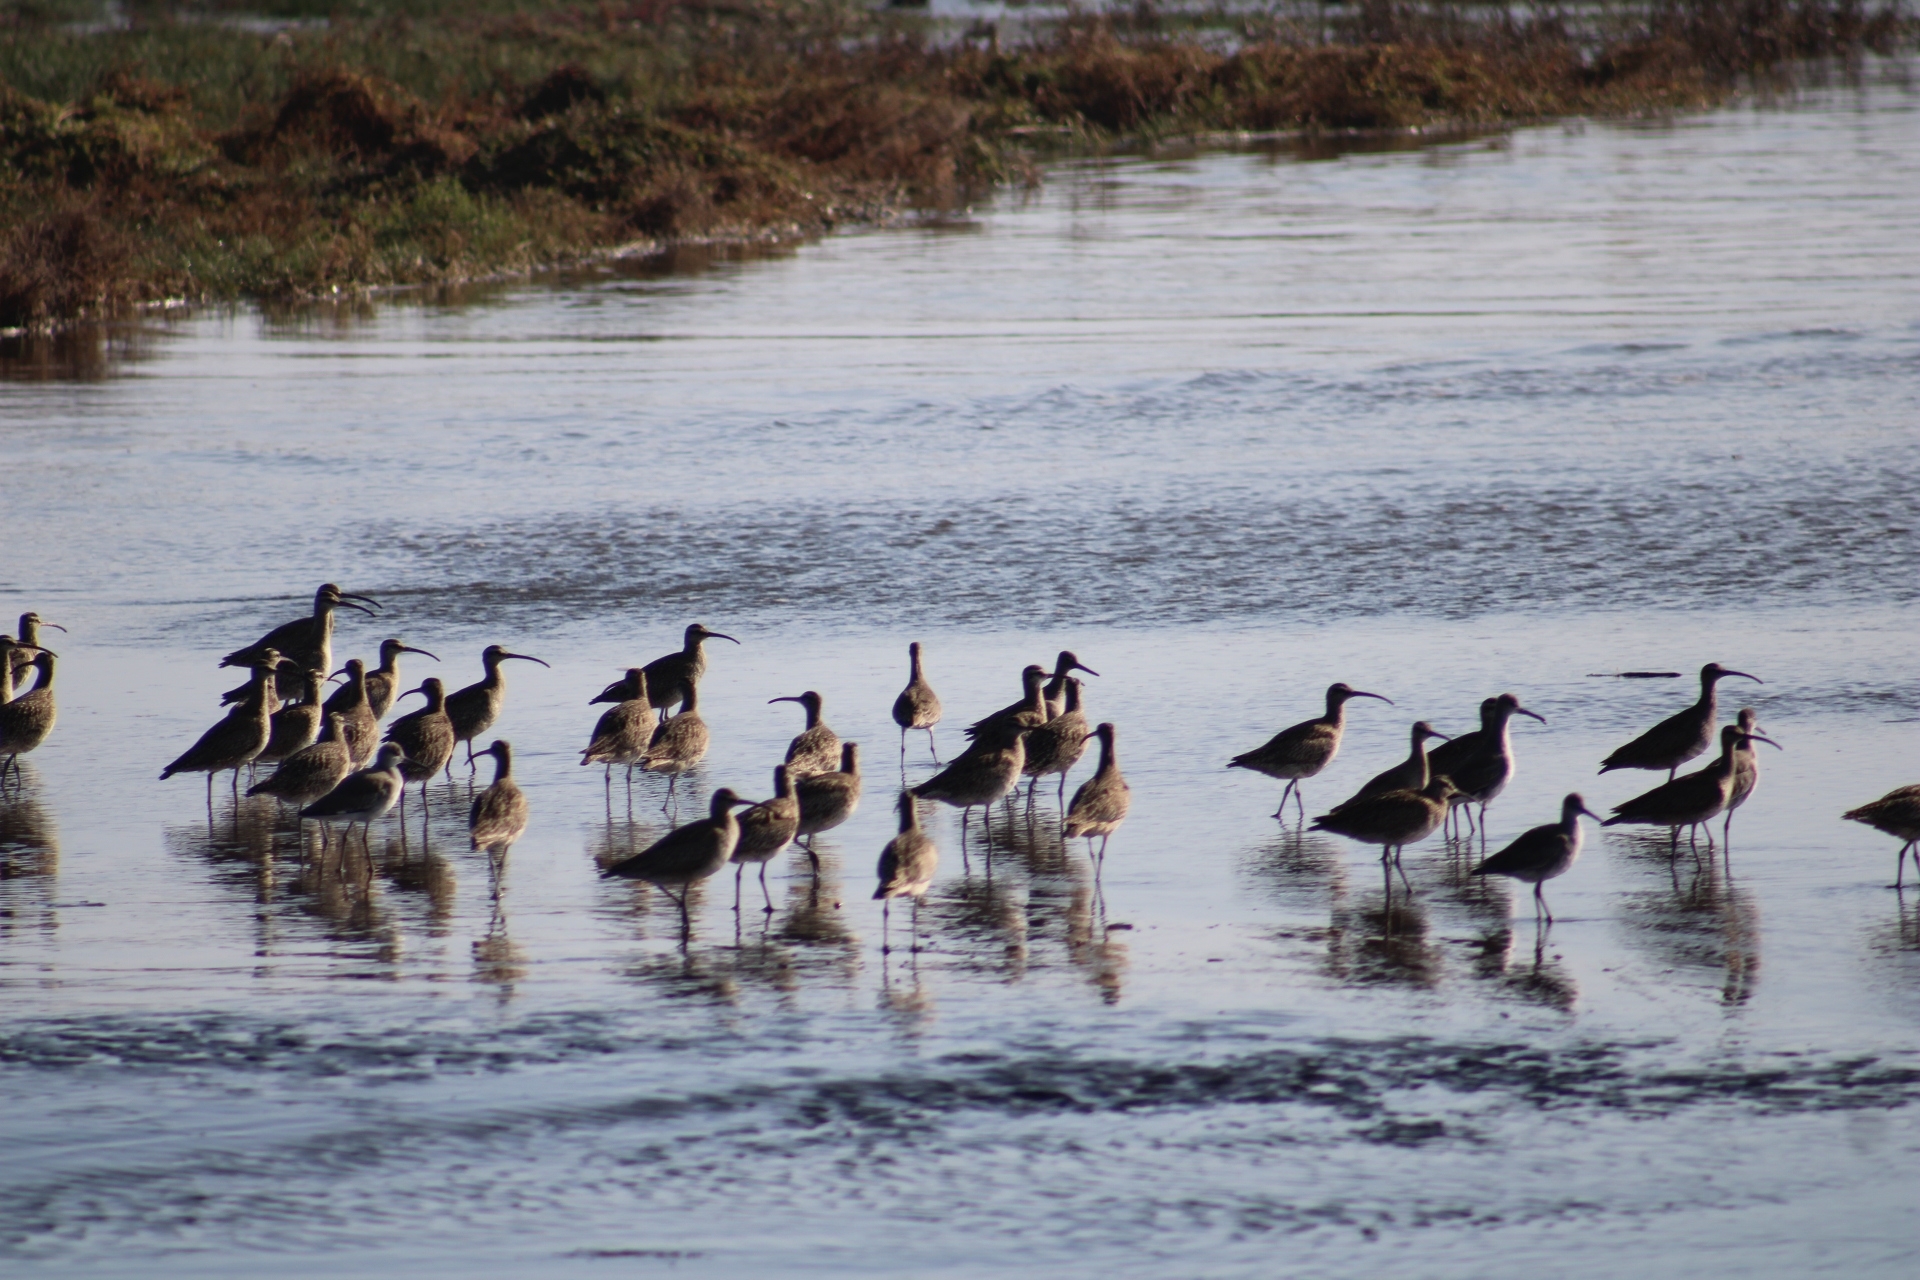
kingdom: Animalia
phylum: Chordata
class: Aves
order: Charadriiformes
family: Scolopacidae
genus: Numenius
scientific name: Numenius phaeopus
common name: Whimbrel
